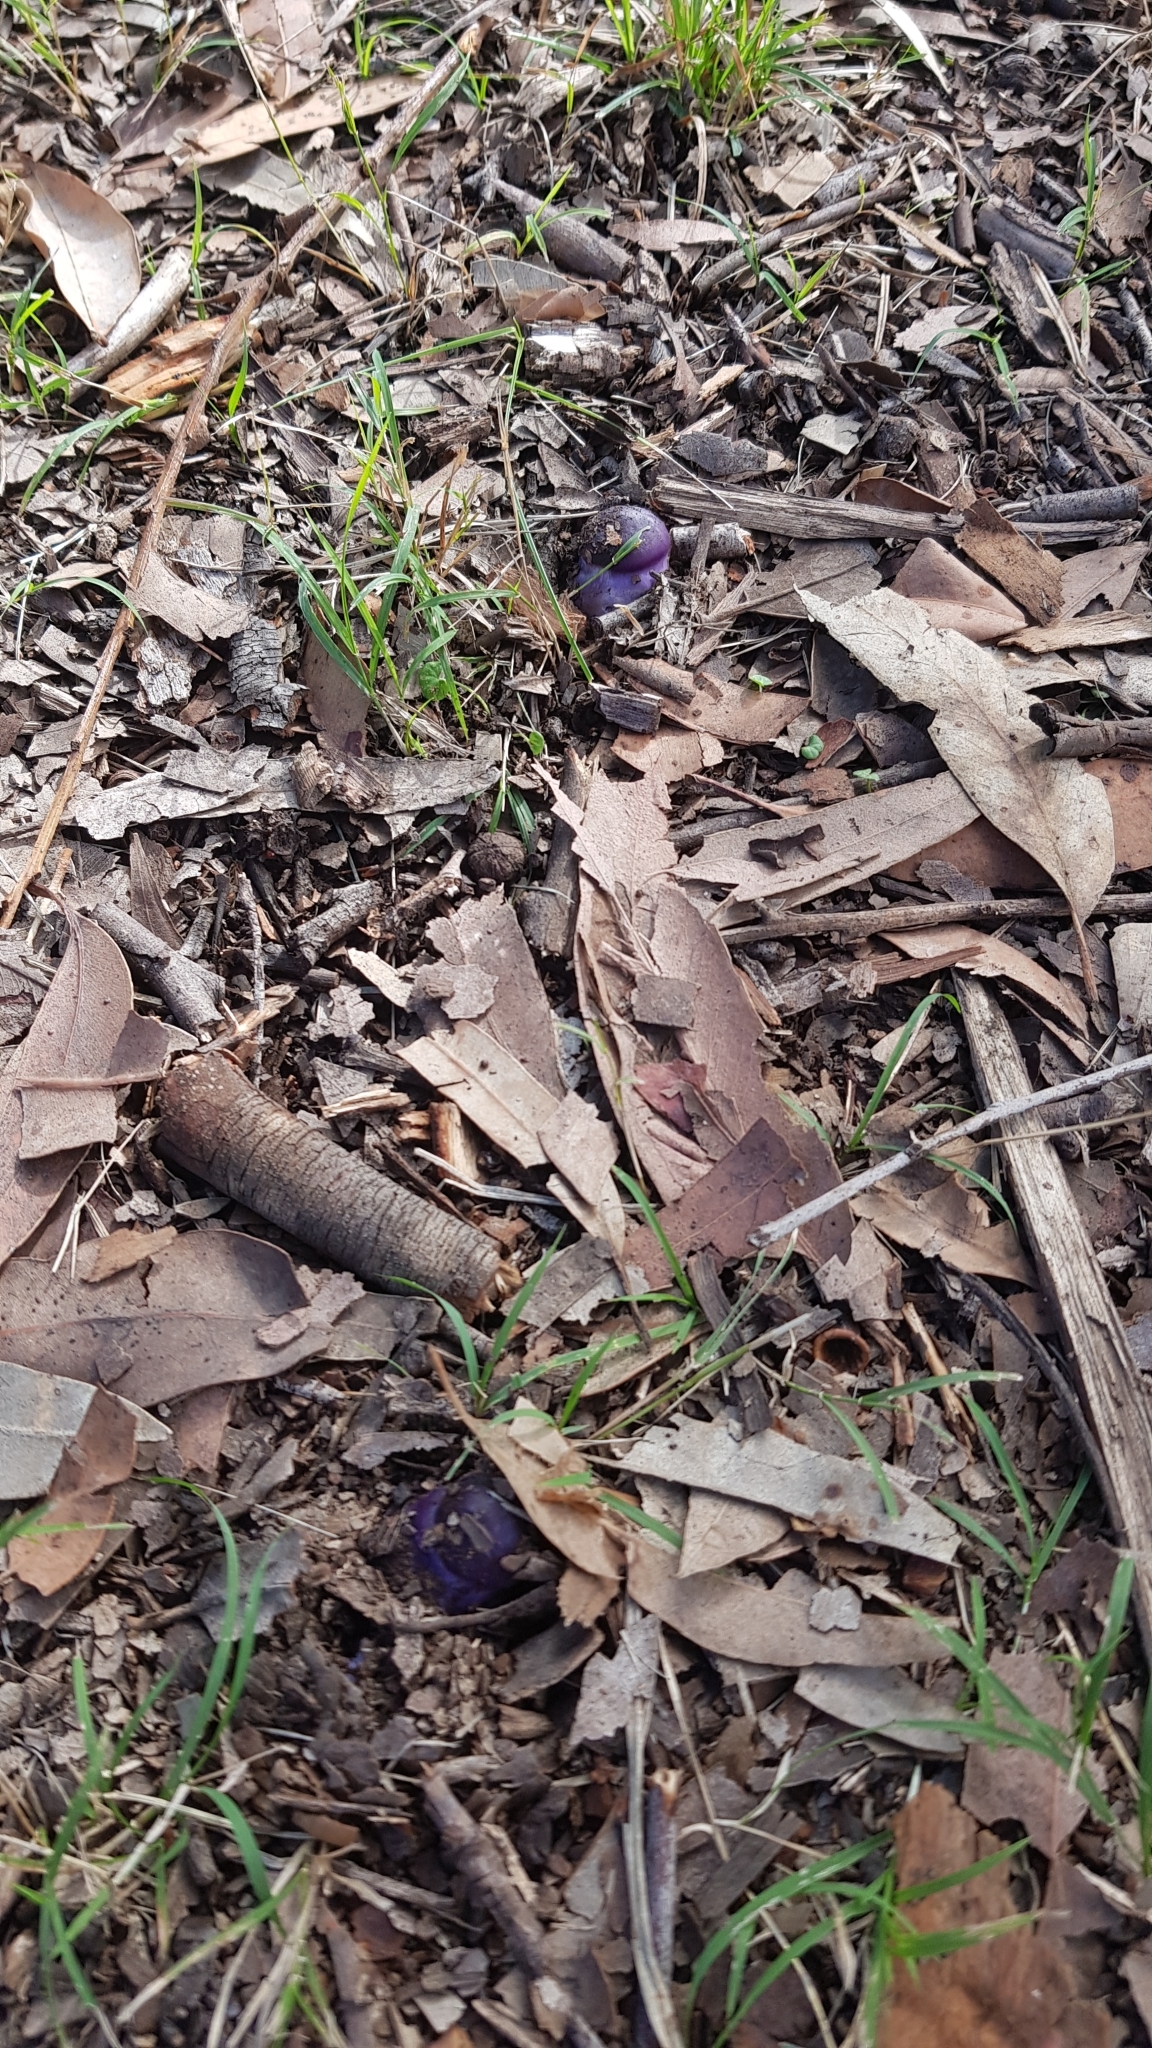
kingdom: Fungi
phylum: Basidiomycota
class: Agaricomycetes
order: Agaricales
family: Cortinariaceae
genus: Cortinarius
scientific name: Cortinarius archeri
